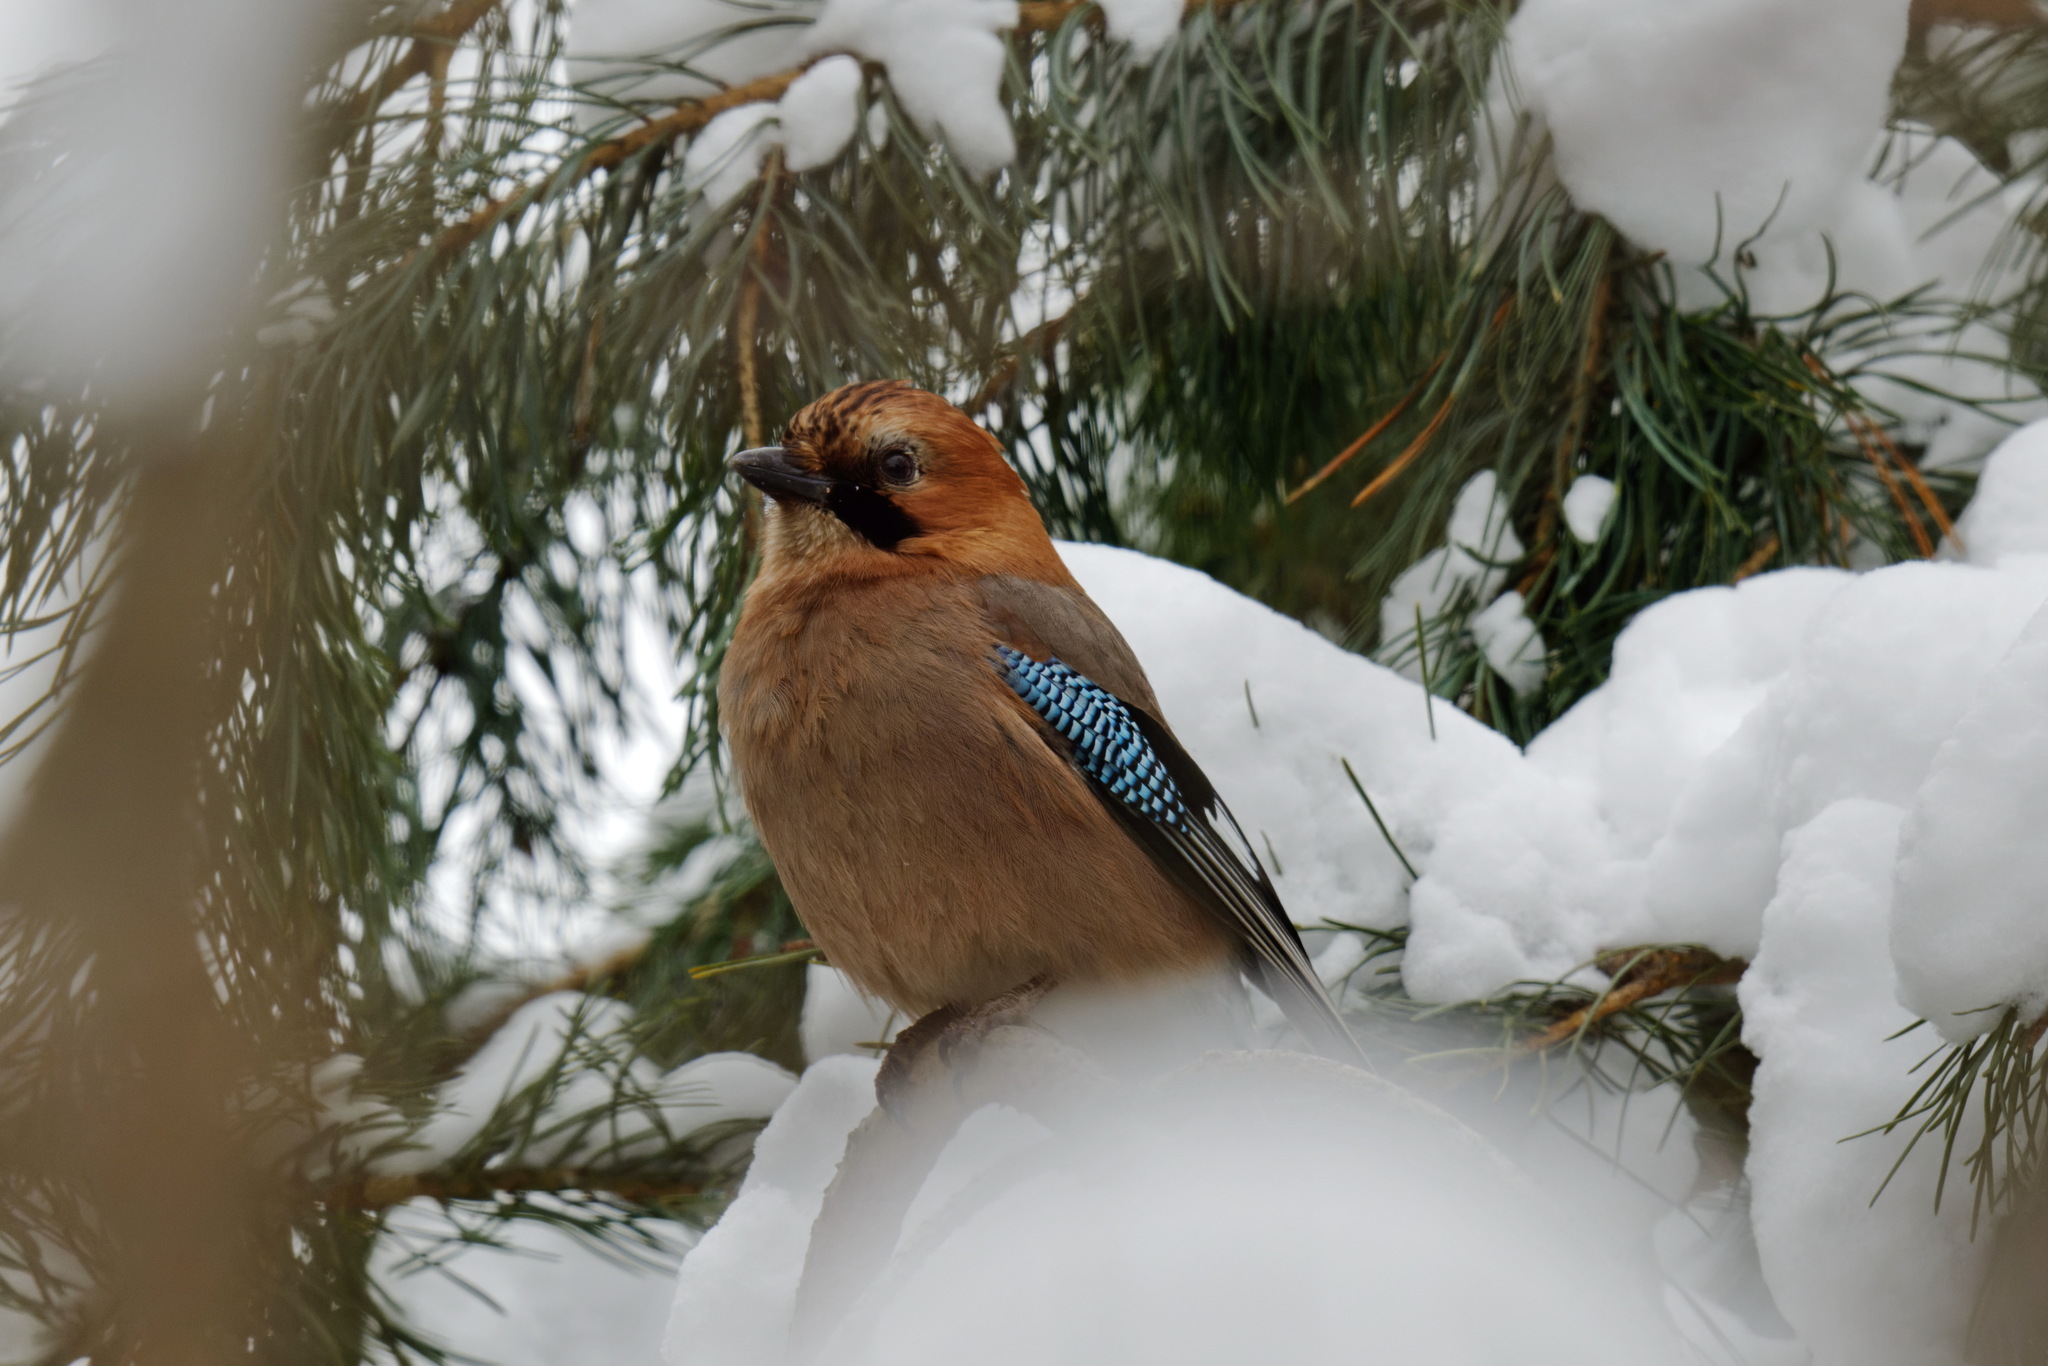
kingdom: Animalia
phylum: Chordata
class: Aves
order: Passeriformes
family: Corvidae
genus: Garrulus
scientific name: Garrulus glandarius
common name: Eurasian jay
